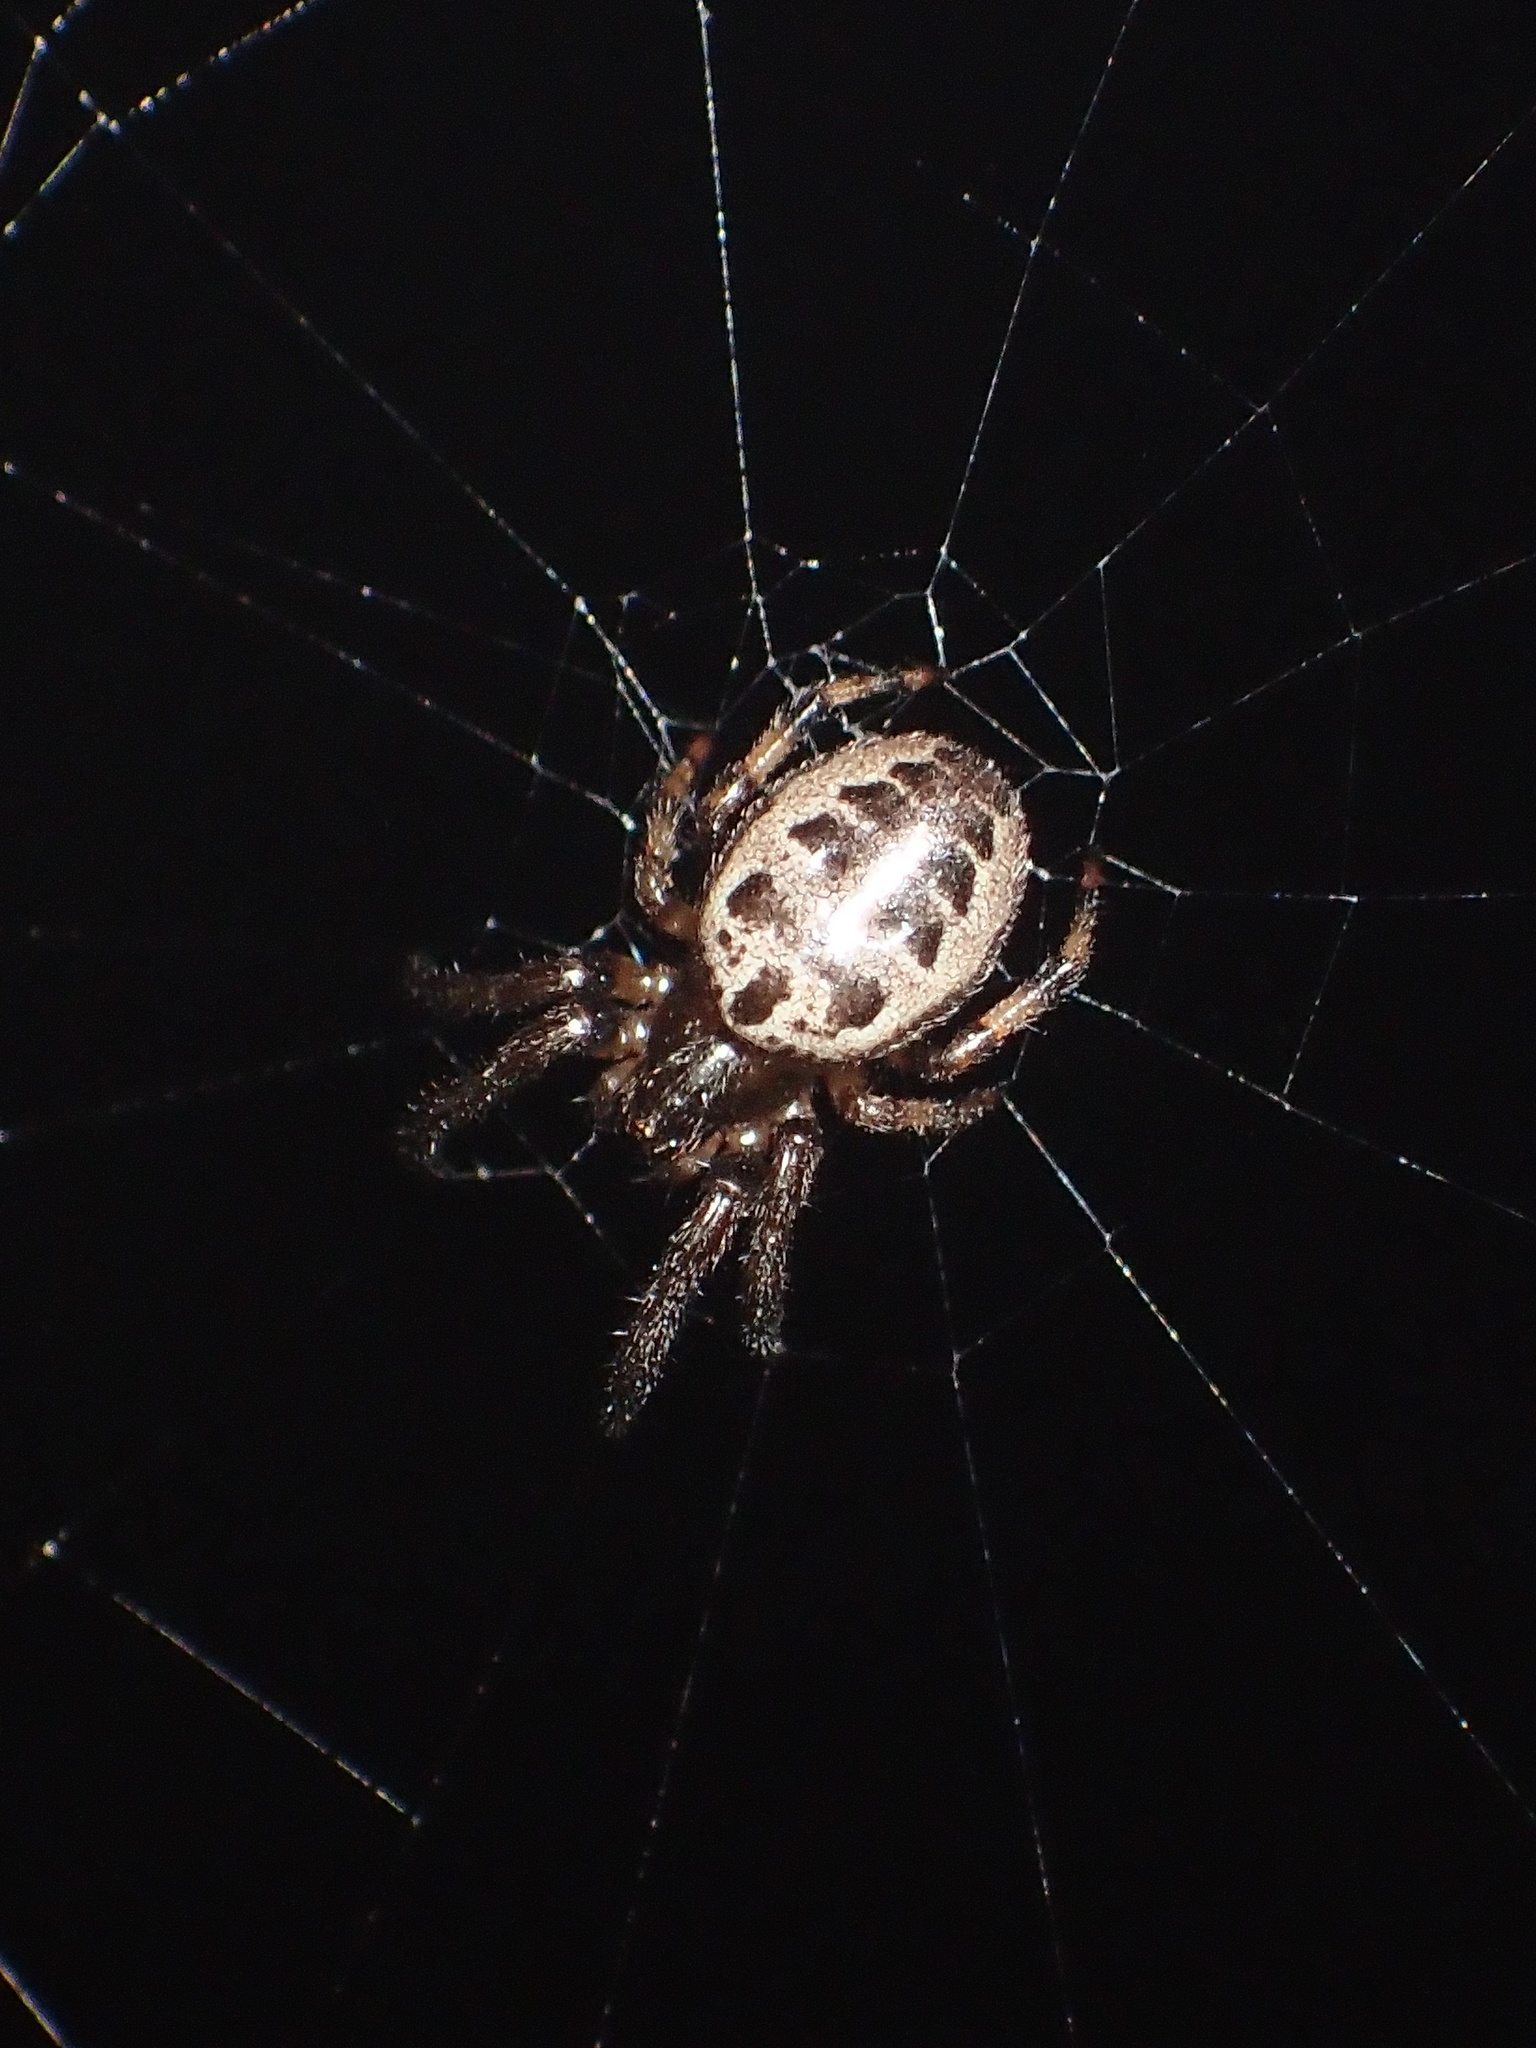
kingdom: Animalia
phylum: Arthropoda
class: Arachnida
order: Araneae
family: Araneidae
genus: Larinioides
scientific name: Larinioides cornutus
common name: Furrow orbweaver
